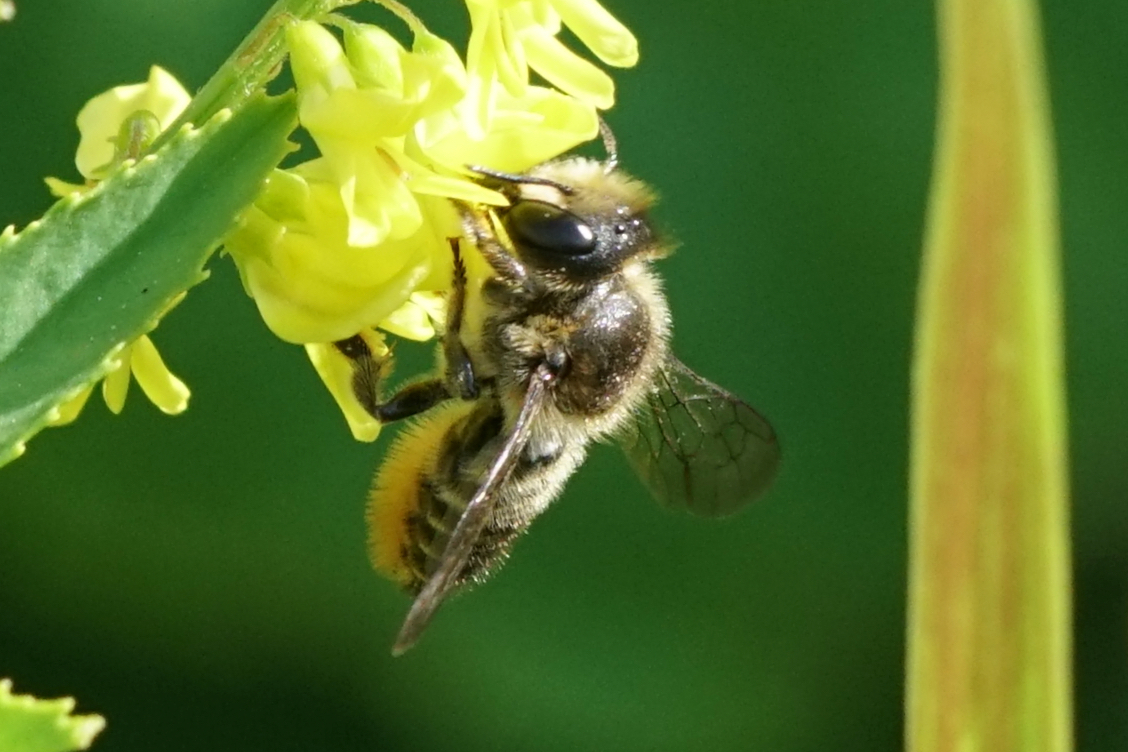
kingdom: Animalia
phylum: Arthropoda
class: Insecta
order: Hymenoptera
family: Megachilidae
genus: Megachile
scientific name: Megachile centuncularis
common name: Patchwork leafcutter bee
